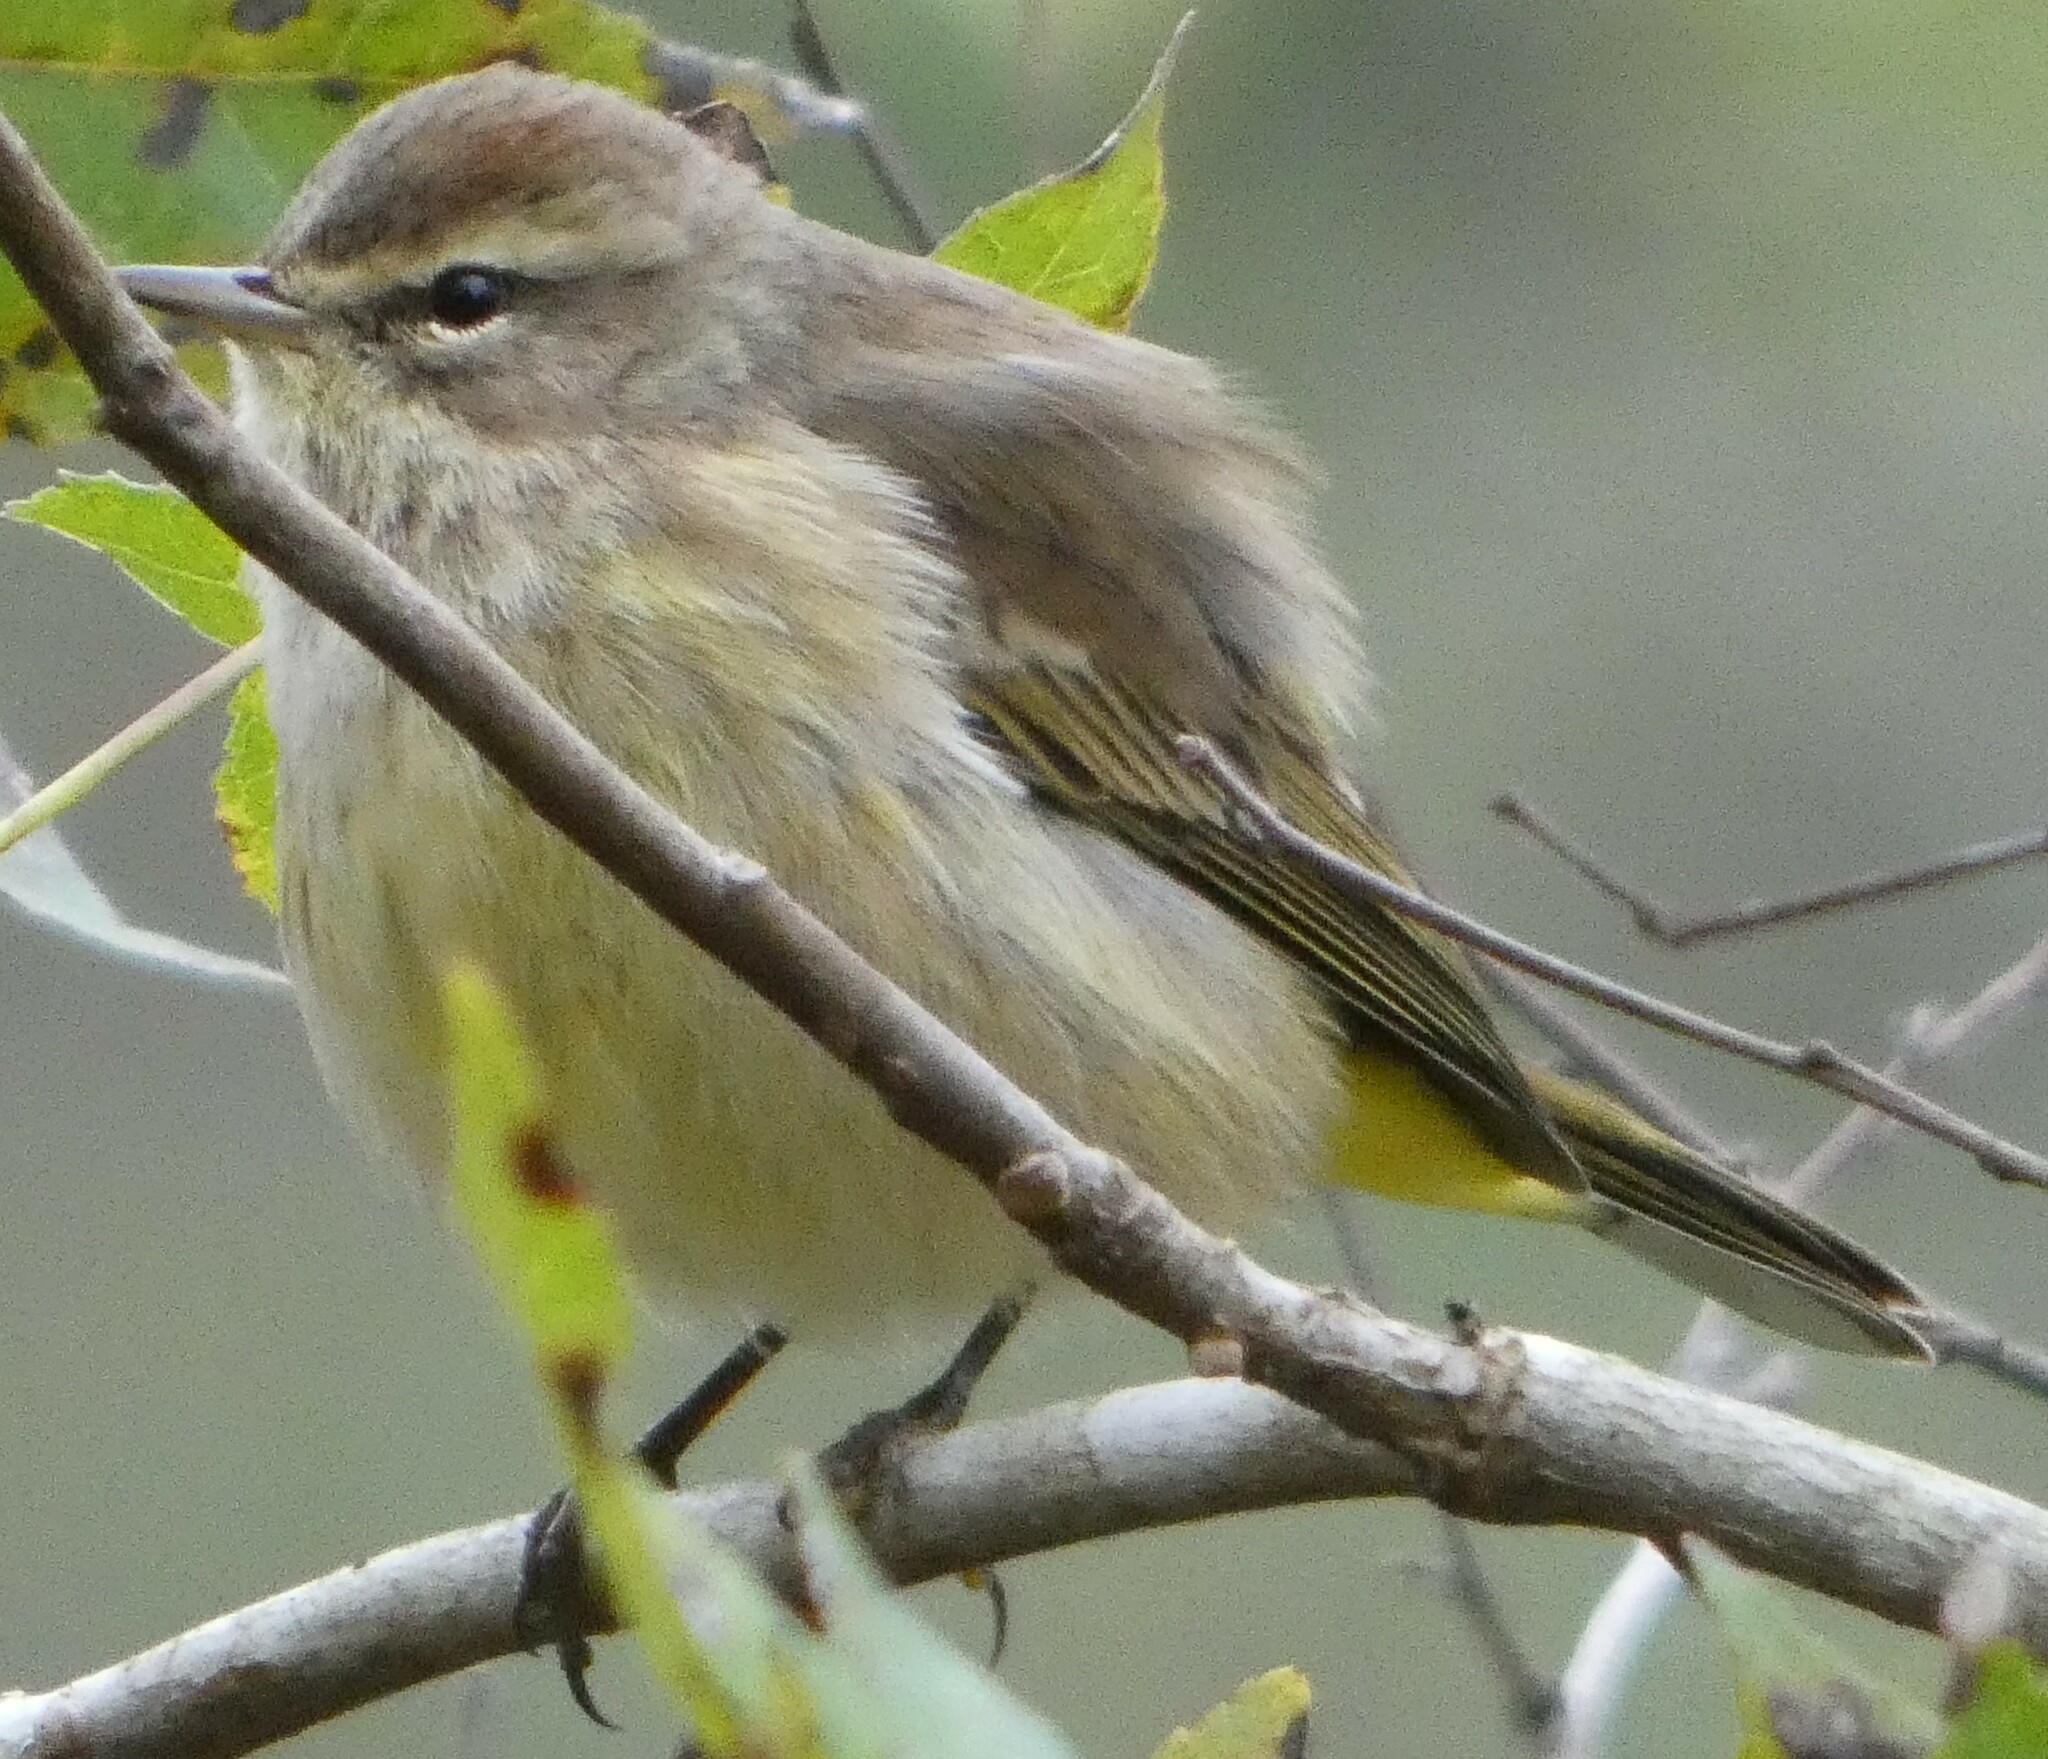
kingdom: Animalia
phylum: Chordata
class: Aves
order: Passeriformes
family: Parulidae
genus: Setophaga
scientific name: Setophaga palmarum
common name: Palm warbler
